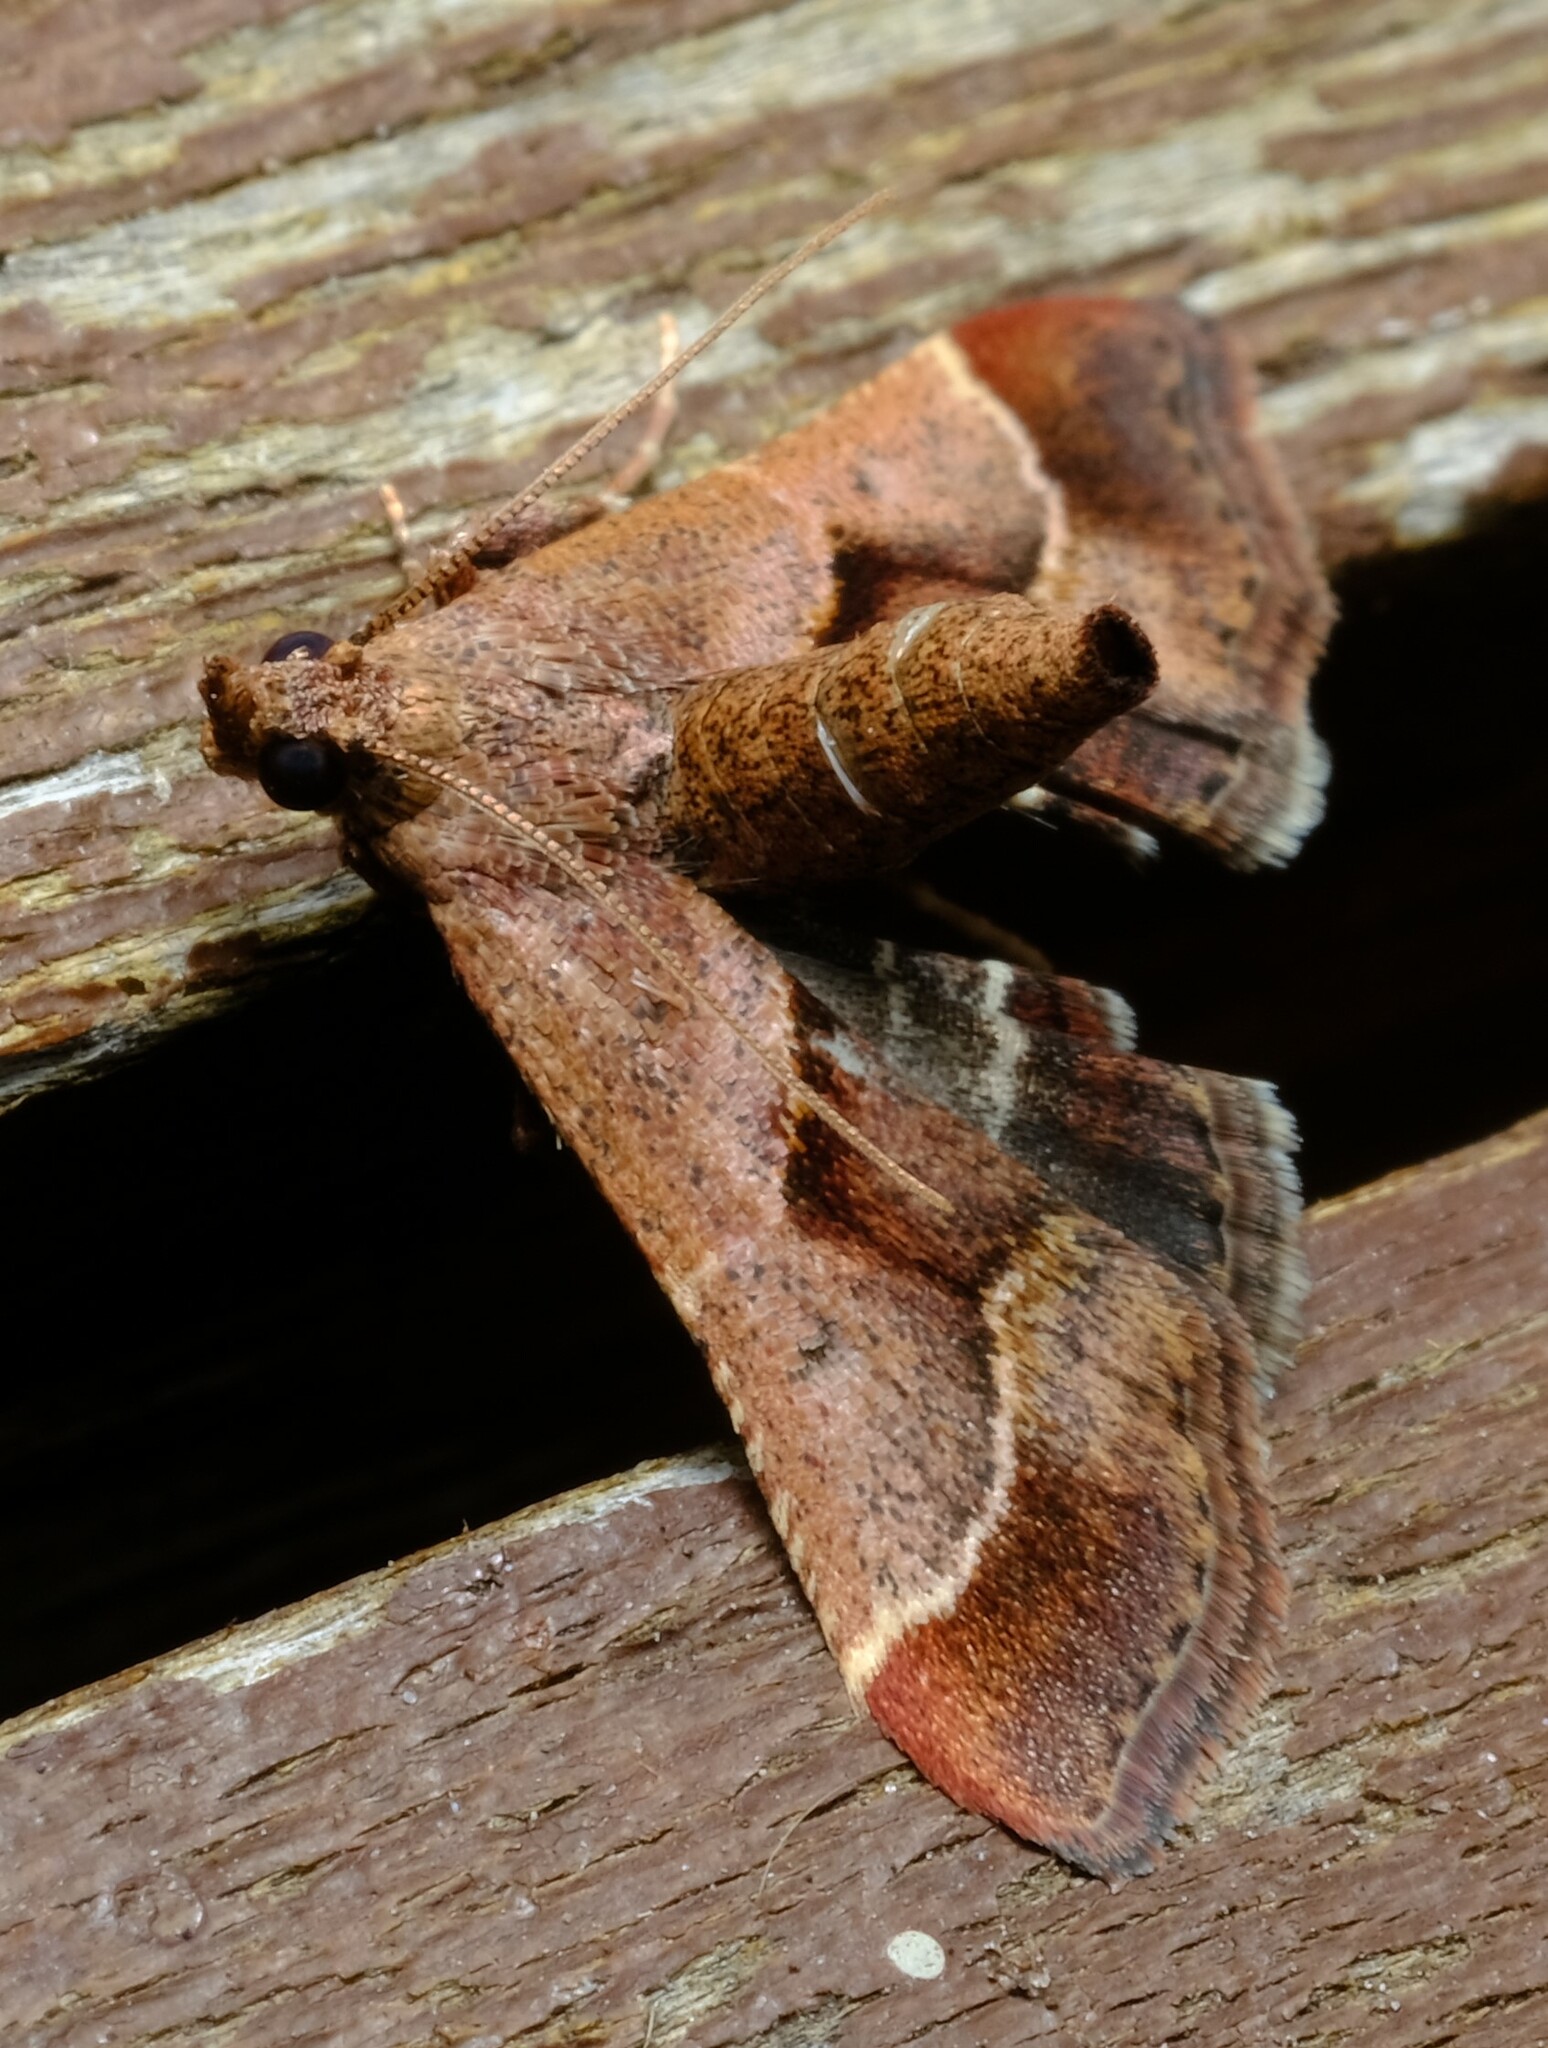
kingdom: Animalia
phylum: Arthropoda
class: Insecta
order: Lepidoptera
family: Pyralidae
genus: Gauna
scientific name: Gauna aegusalis
